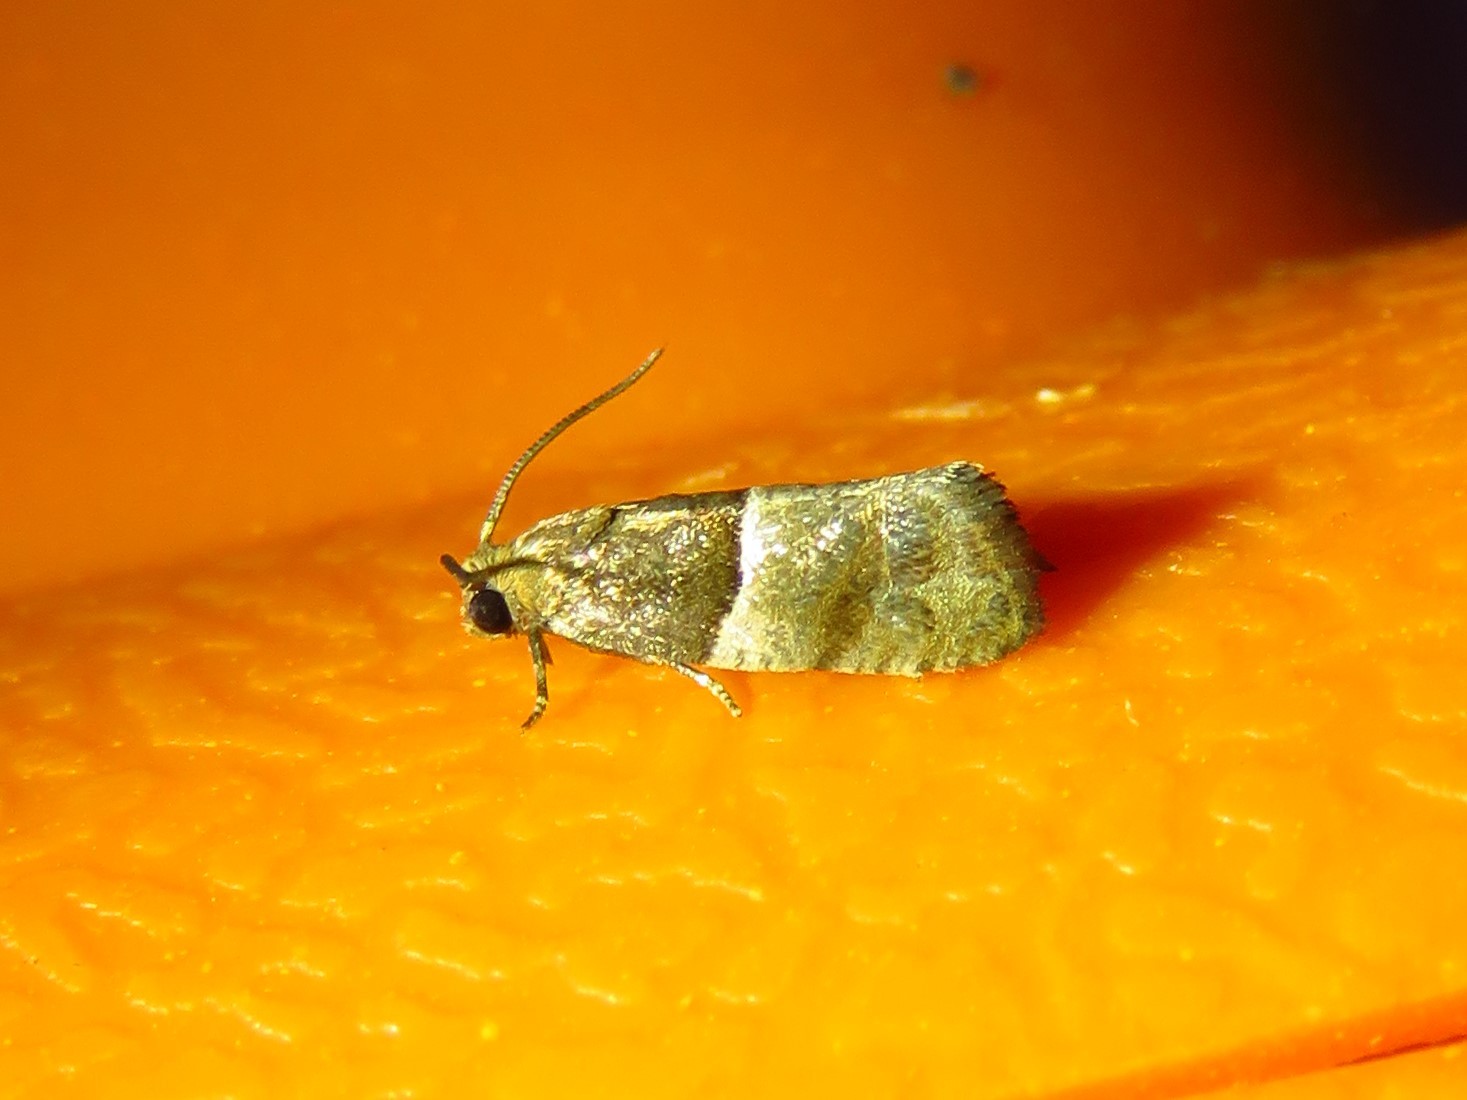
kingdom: Animalia
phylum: Arthropoda
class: Insecta
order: Lepidoptera
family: Tortricidae
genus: Larisa
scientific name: Larisa subsolana
